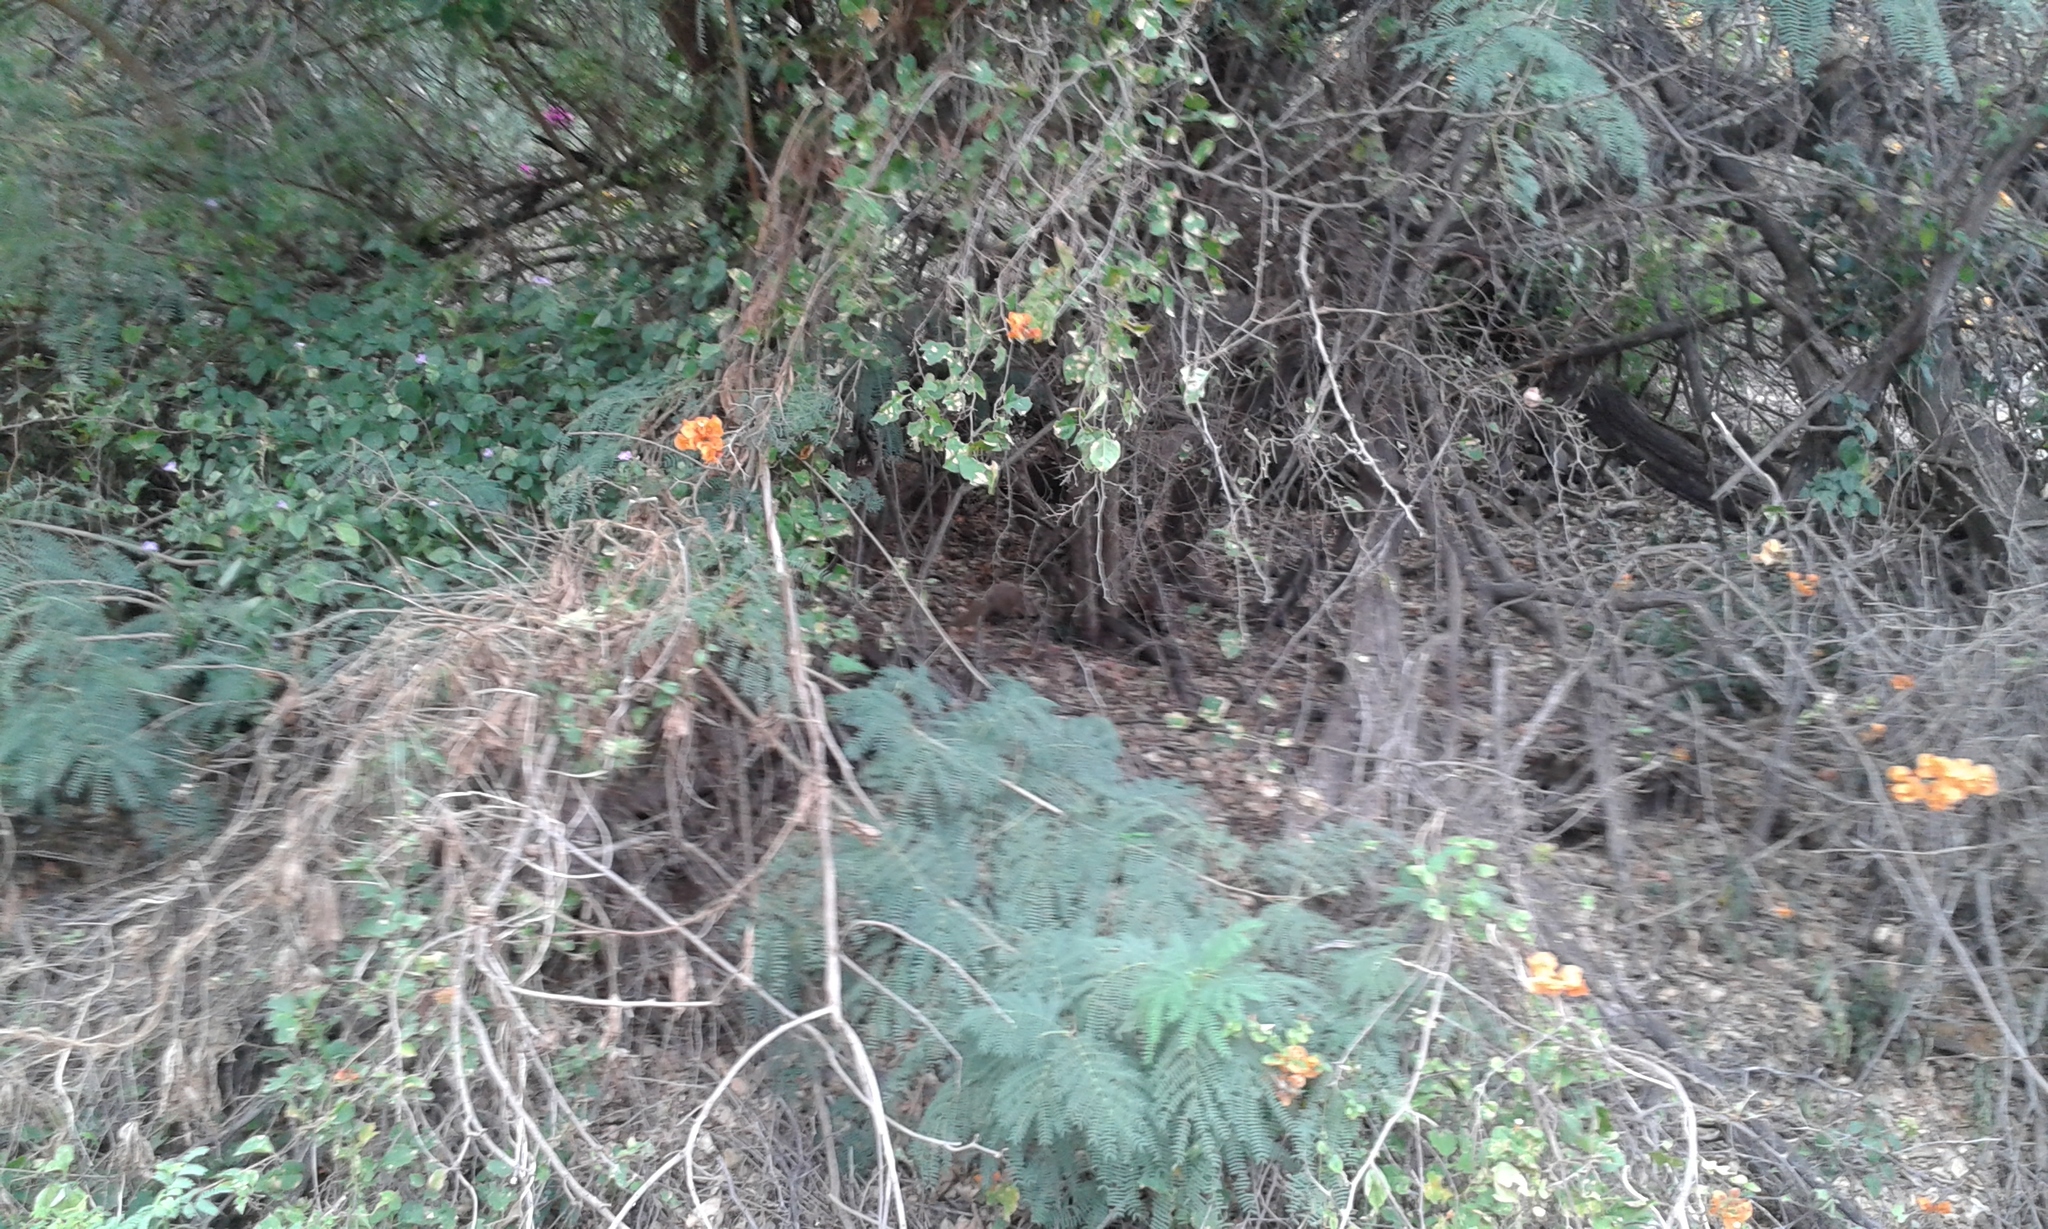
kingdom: Animalia
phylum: Chordata
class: Mammalia
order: Carnivora
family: Herpestidae
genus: Herpestes
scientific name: Herpestes javanicus
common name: Small asian mongoose
